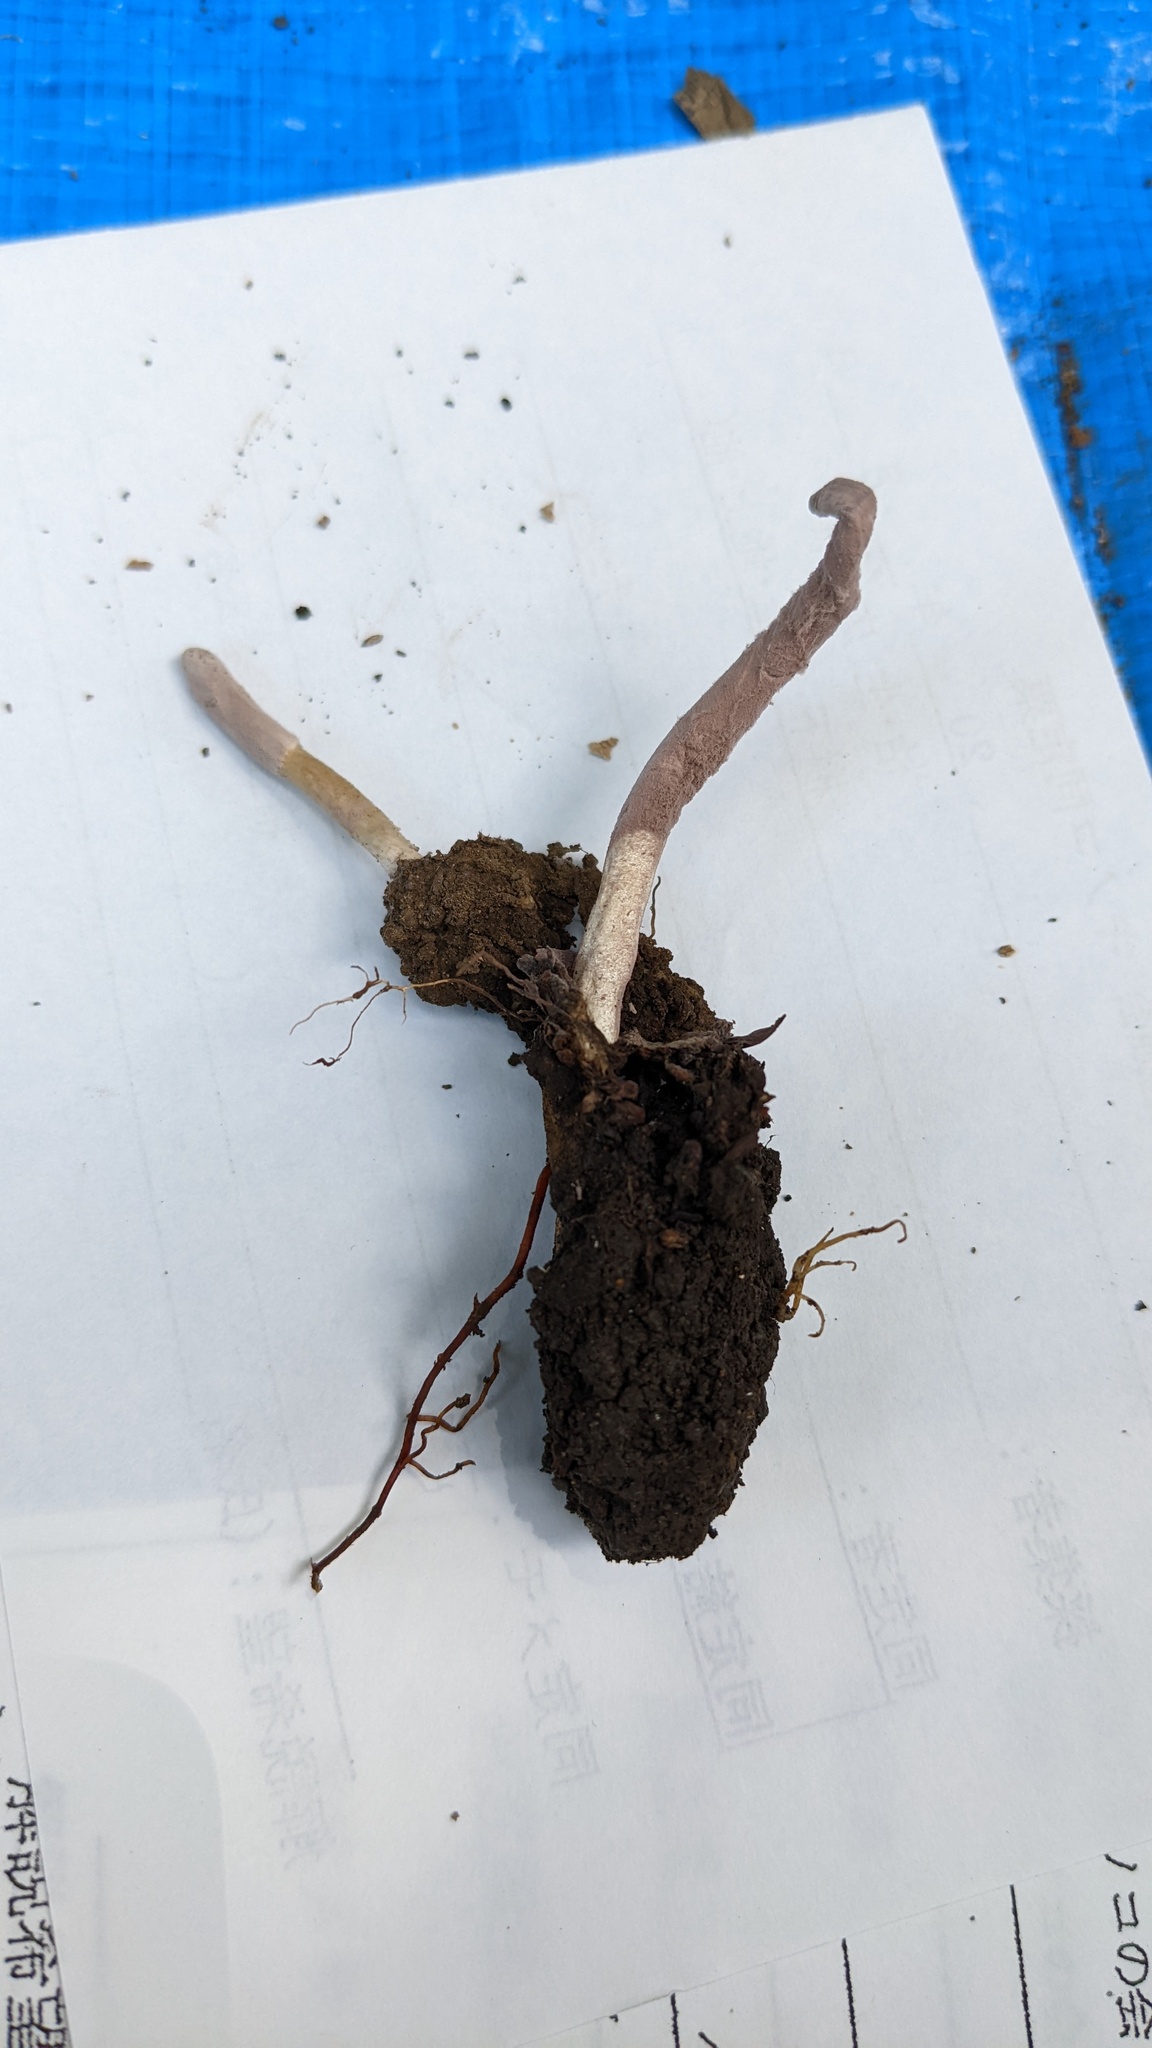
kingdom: Fungi
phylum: Ascomycota
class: Sordariomycetes
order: Hypocreales
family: Ophiocordycipitaceae
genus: Purpureocillium
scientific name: Purpureocillium atypicola
